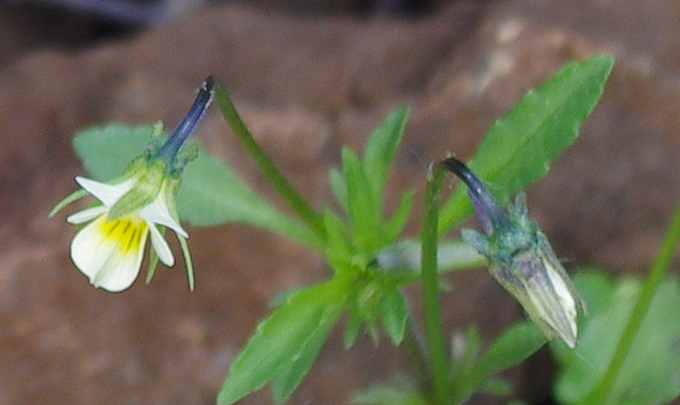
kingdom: Plantae
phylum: Tracheophyta
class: Magnoliopsida
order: Malpighiales
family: Violaceae
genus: Viola
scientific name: Viola arvensis
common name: Field pansy
